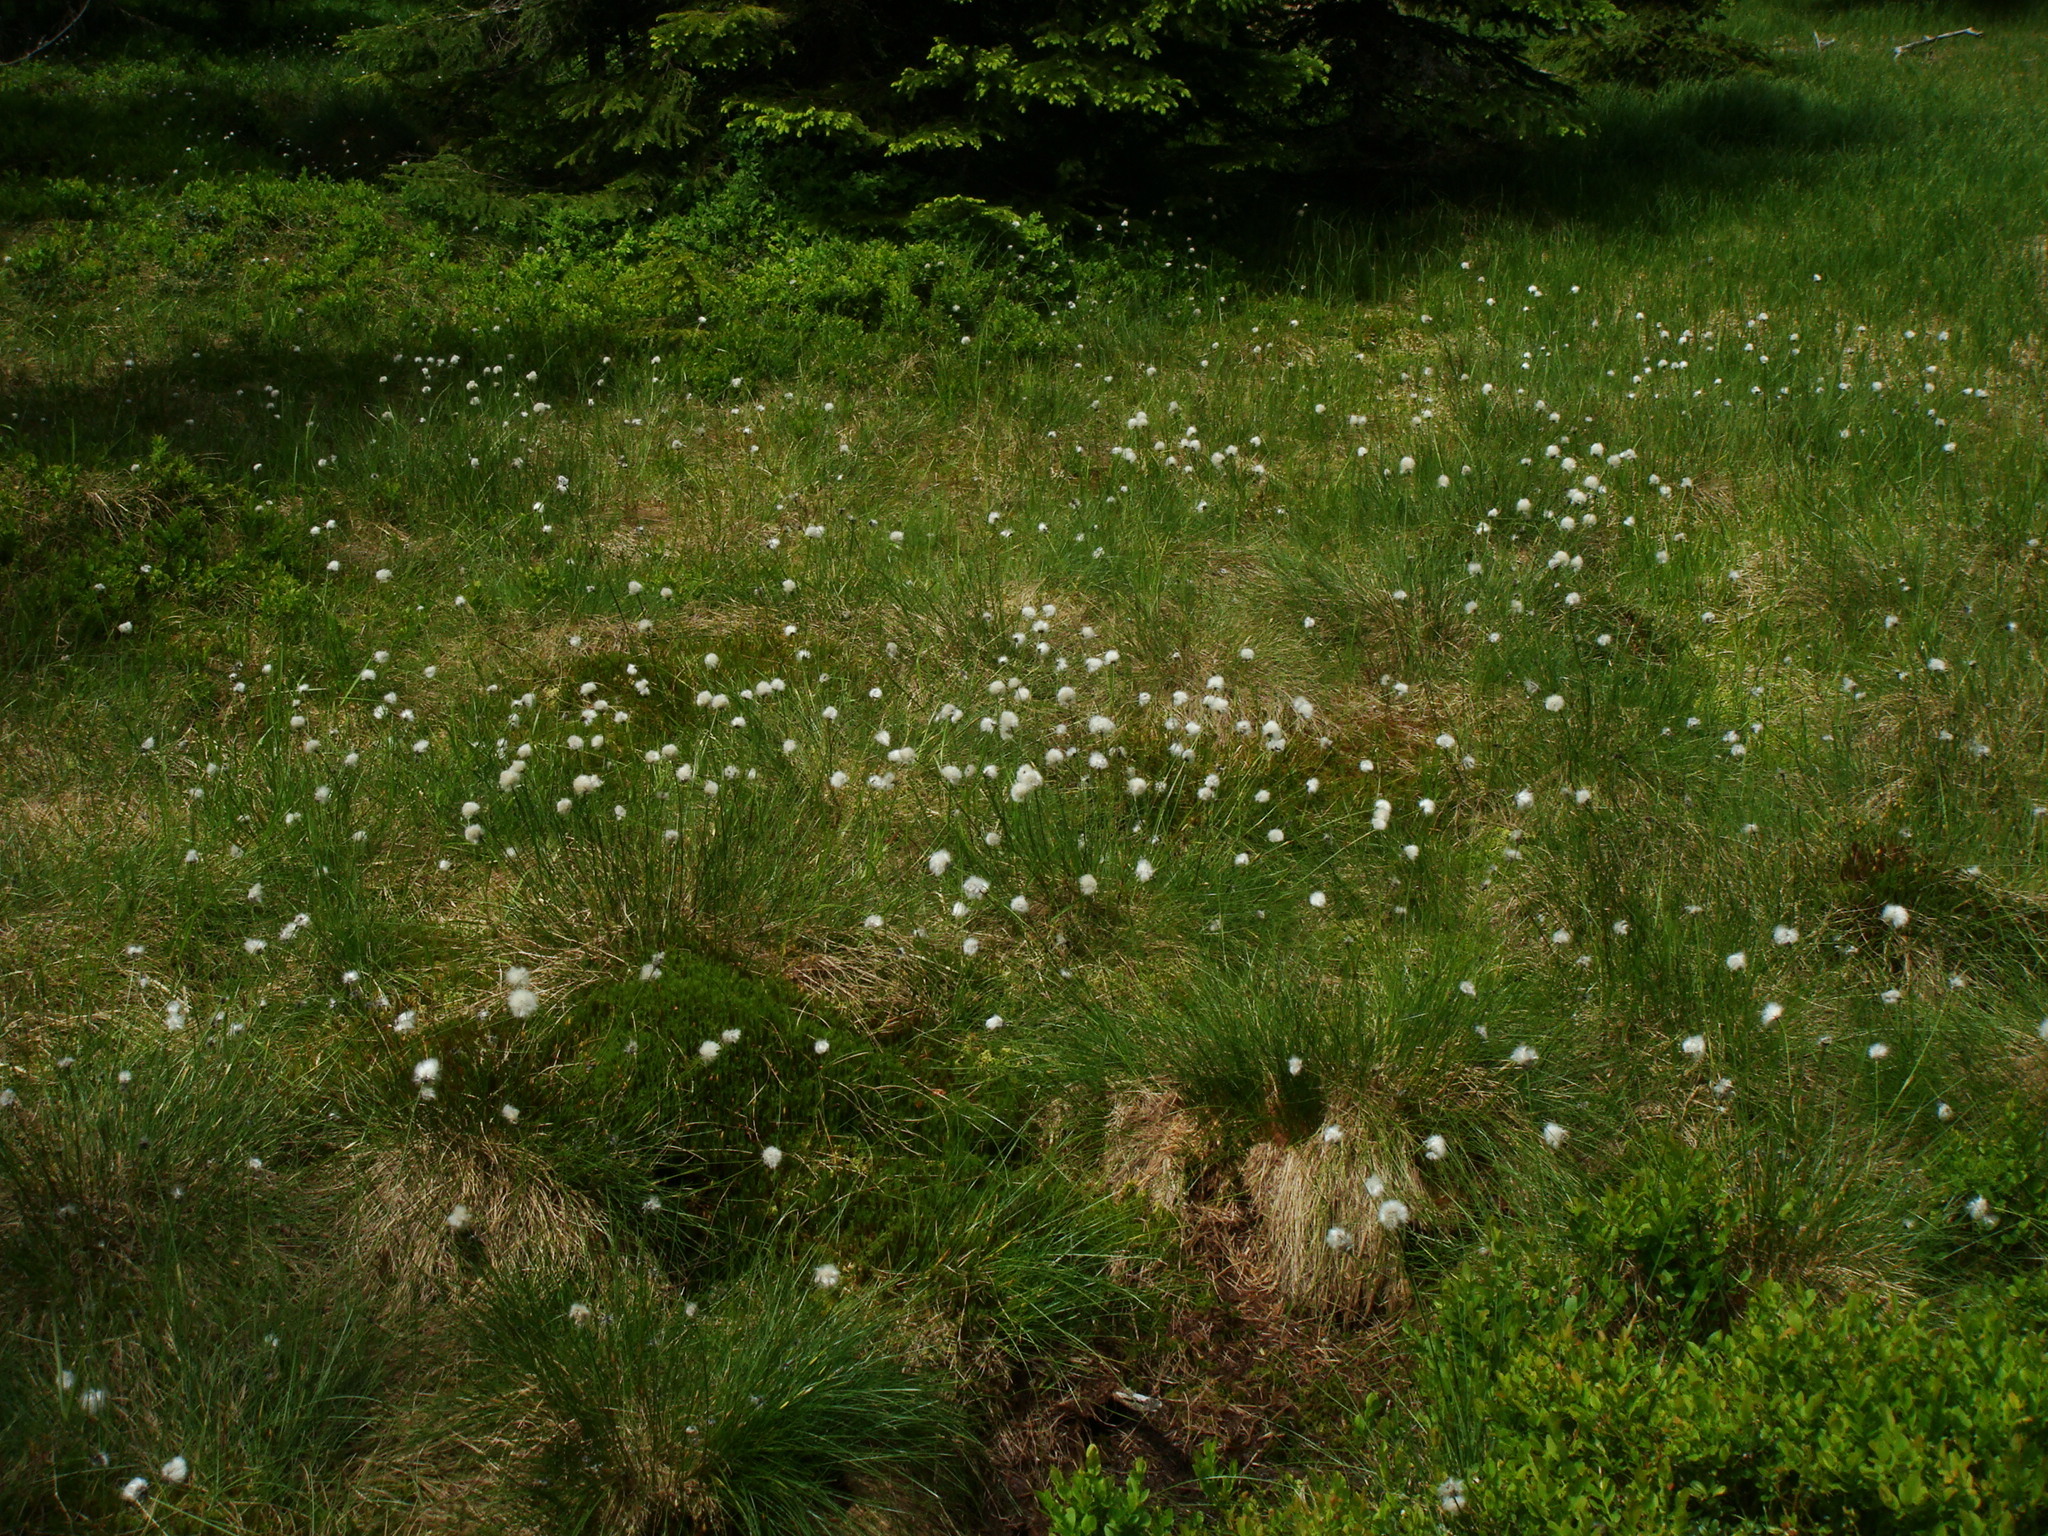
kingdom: Plantae
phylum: Tracheophyta
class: Liliopsida
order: Poales
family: Cyperaceae
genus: Eriophorum
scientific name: Eriophorum vaginatum
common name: Hare's-tail cottongrass
